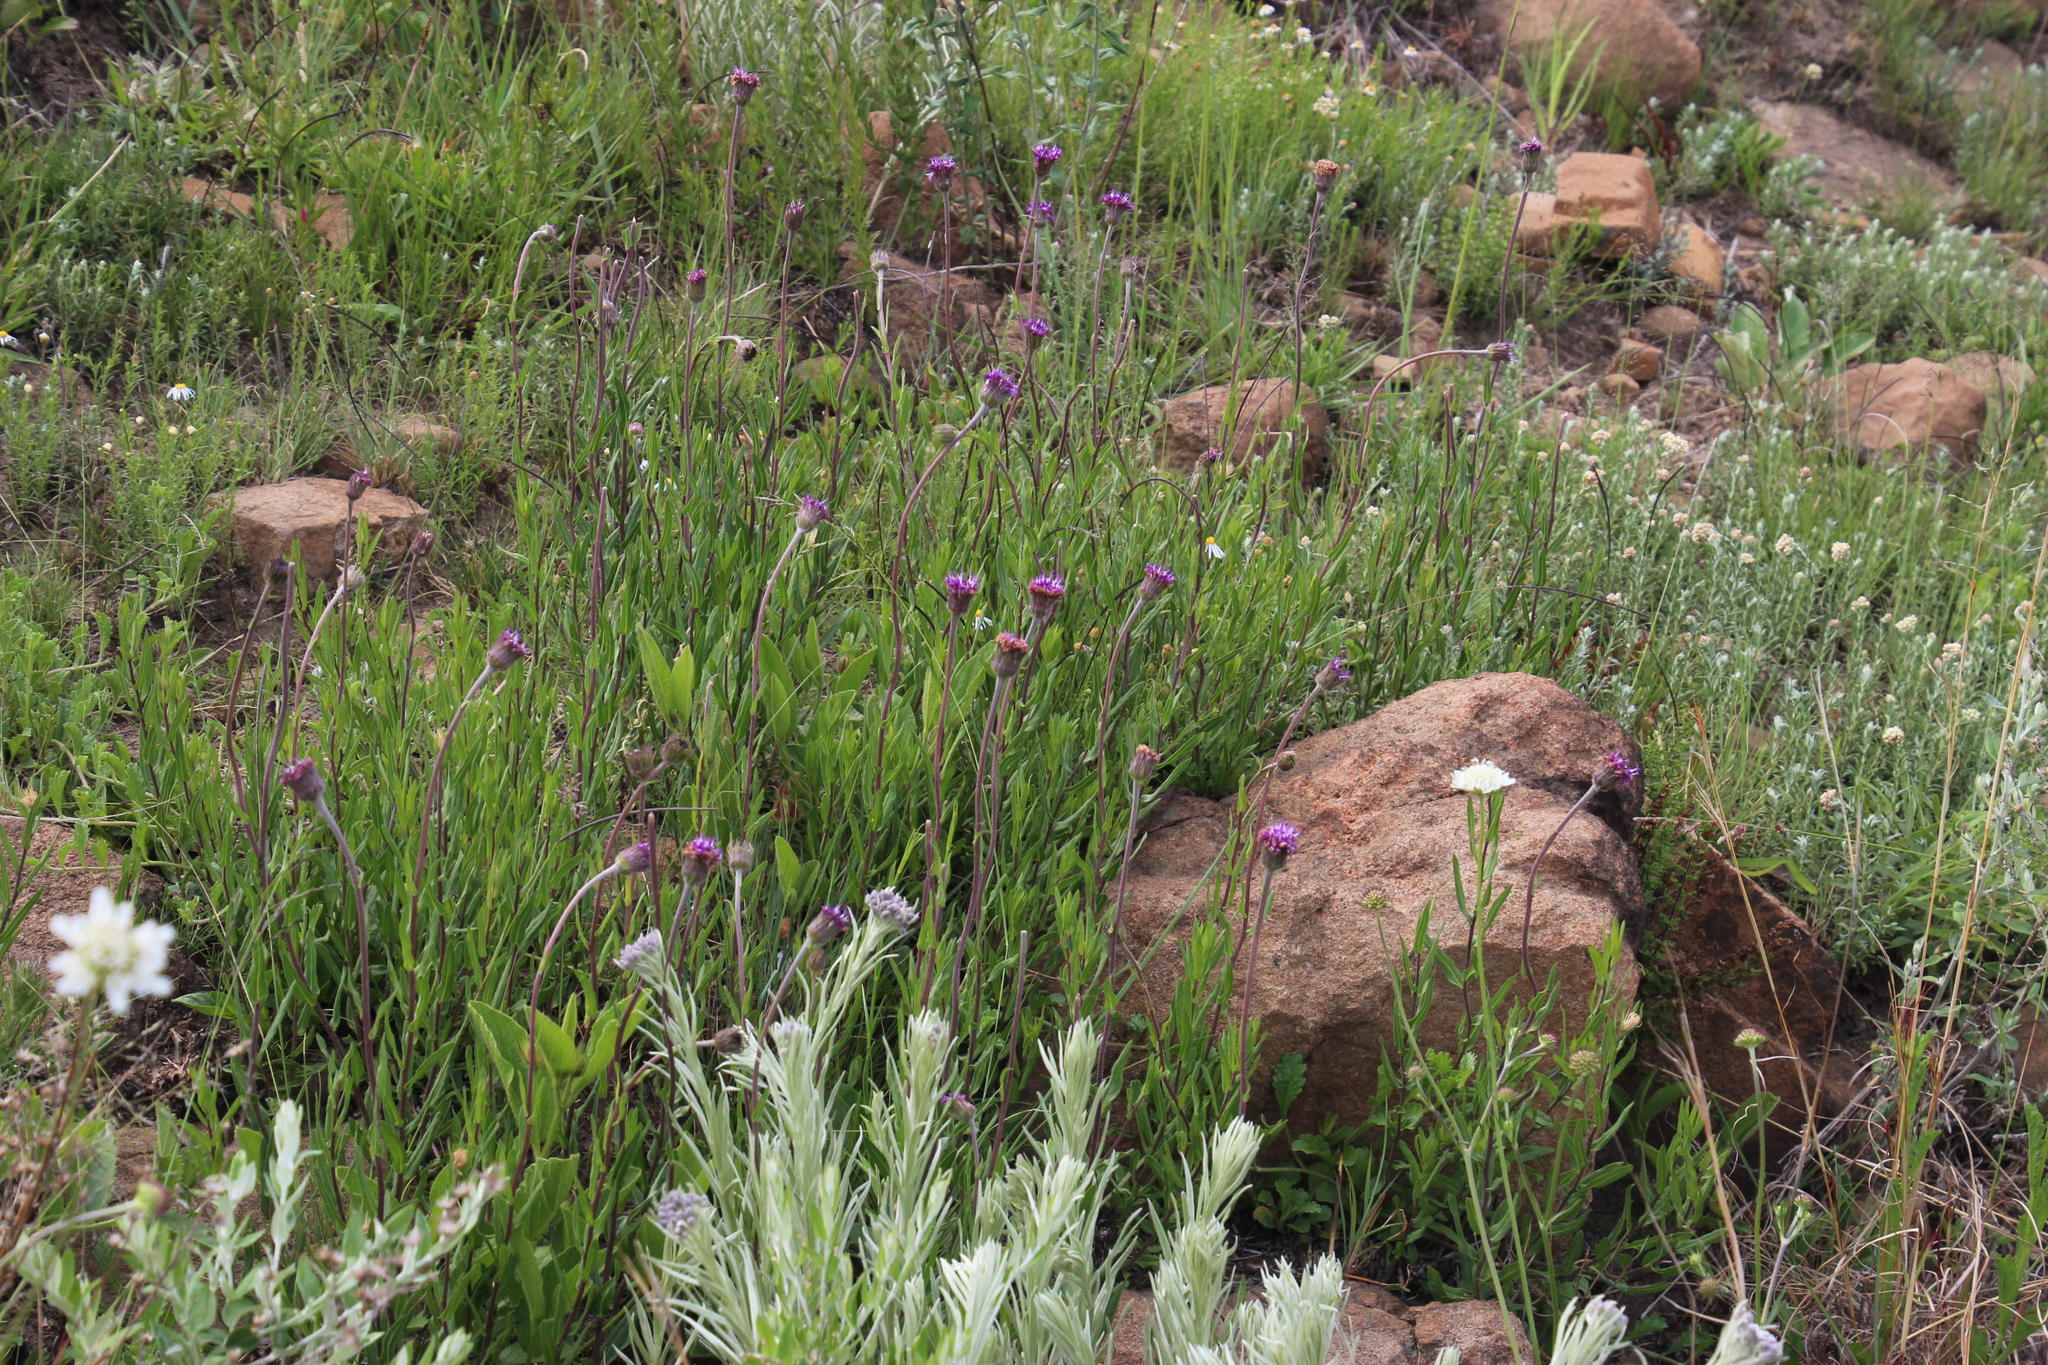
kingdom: Plantae
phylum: Tracheophyta
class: Magnoliopsida
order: Asterales
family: Asteraceae
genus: Pseudopegolettia
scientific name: Pseudopegolettia tenella
